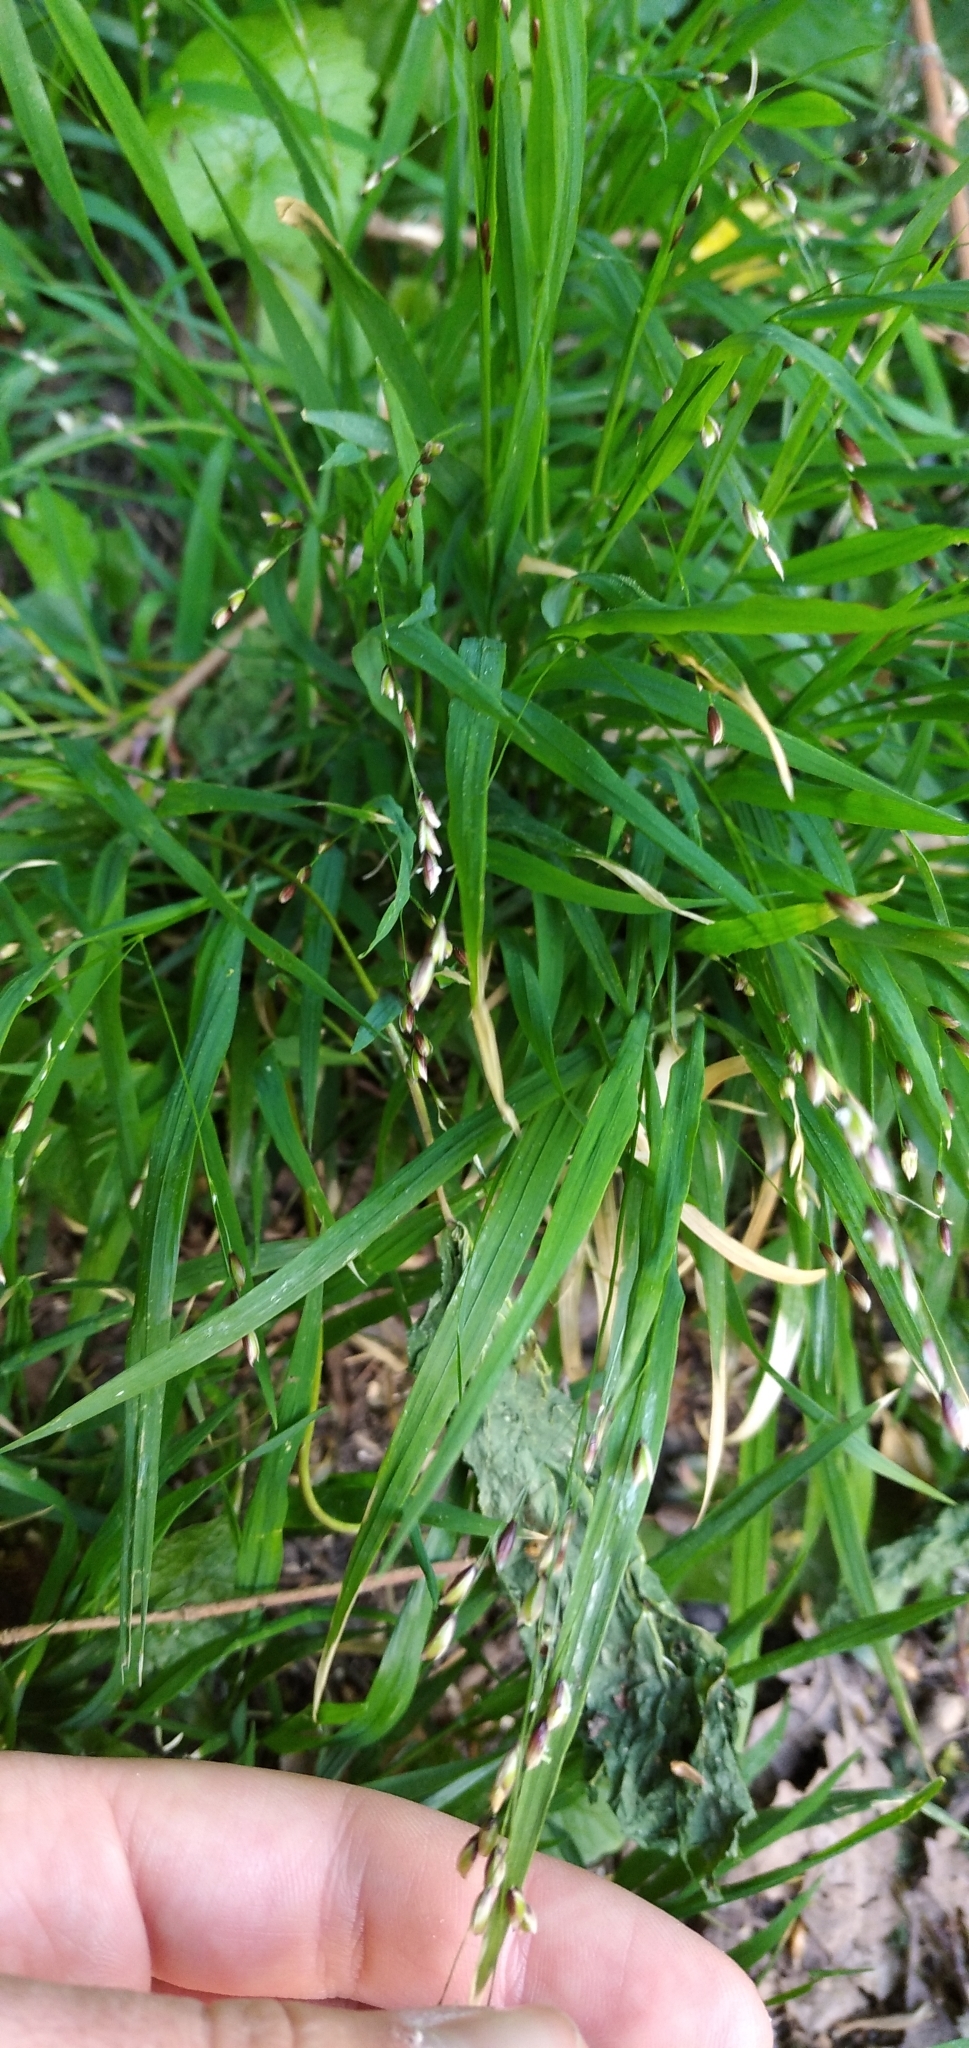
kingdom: Plantae
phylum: Tracheophyta
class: Liliopsida
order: Poales
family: Poaceae
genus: Melica
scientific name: Melica uniflora
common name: Wood melick
